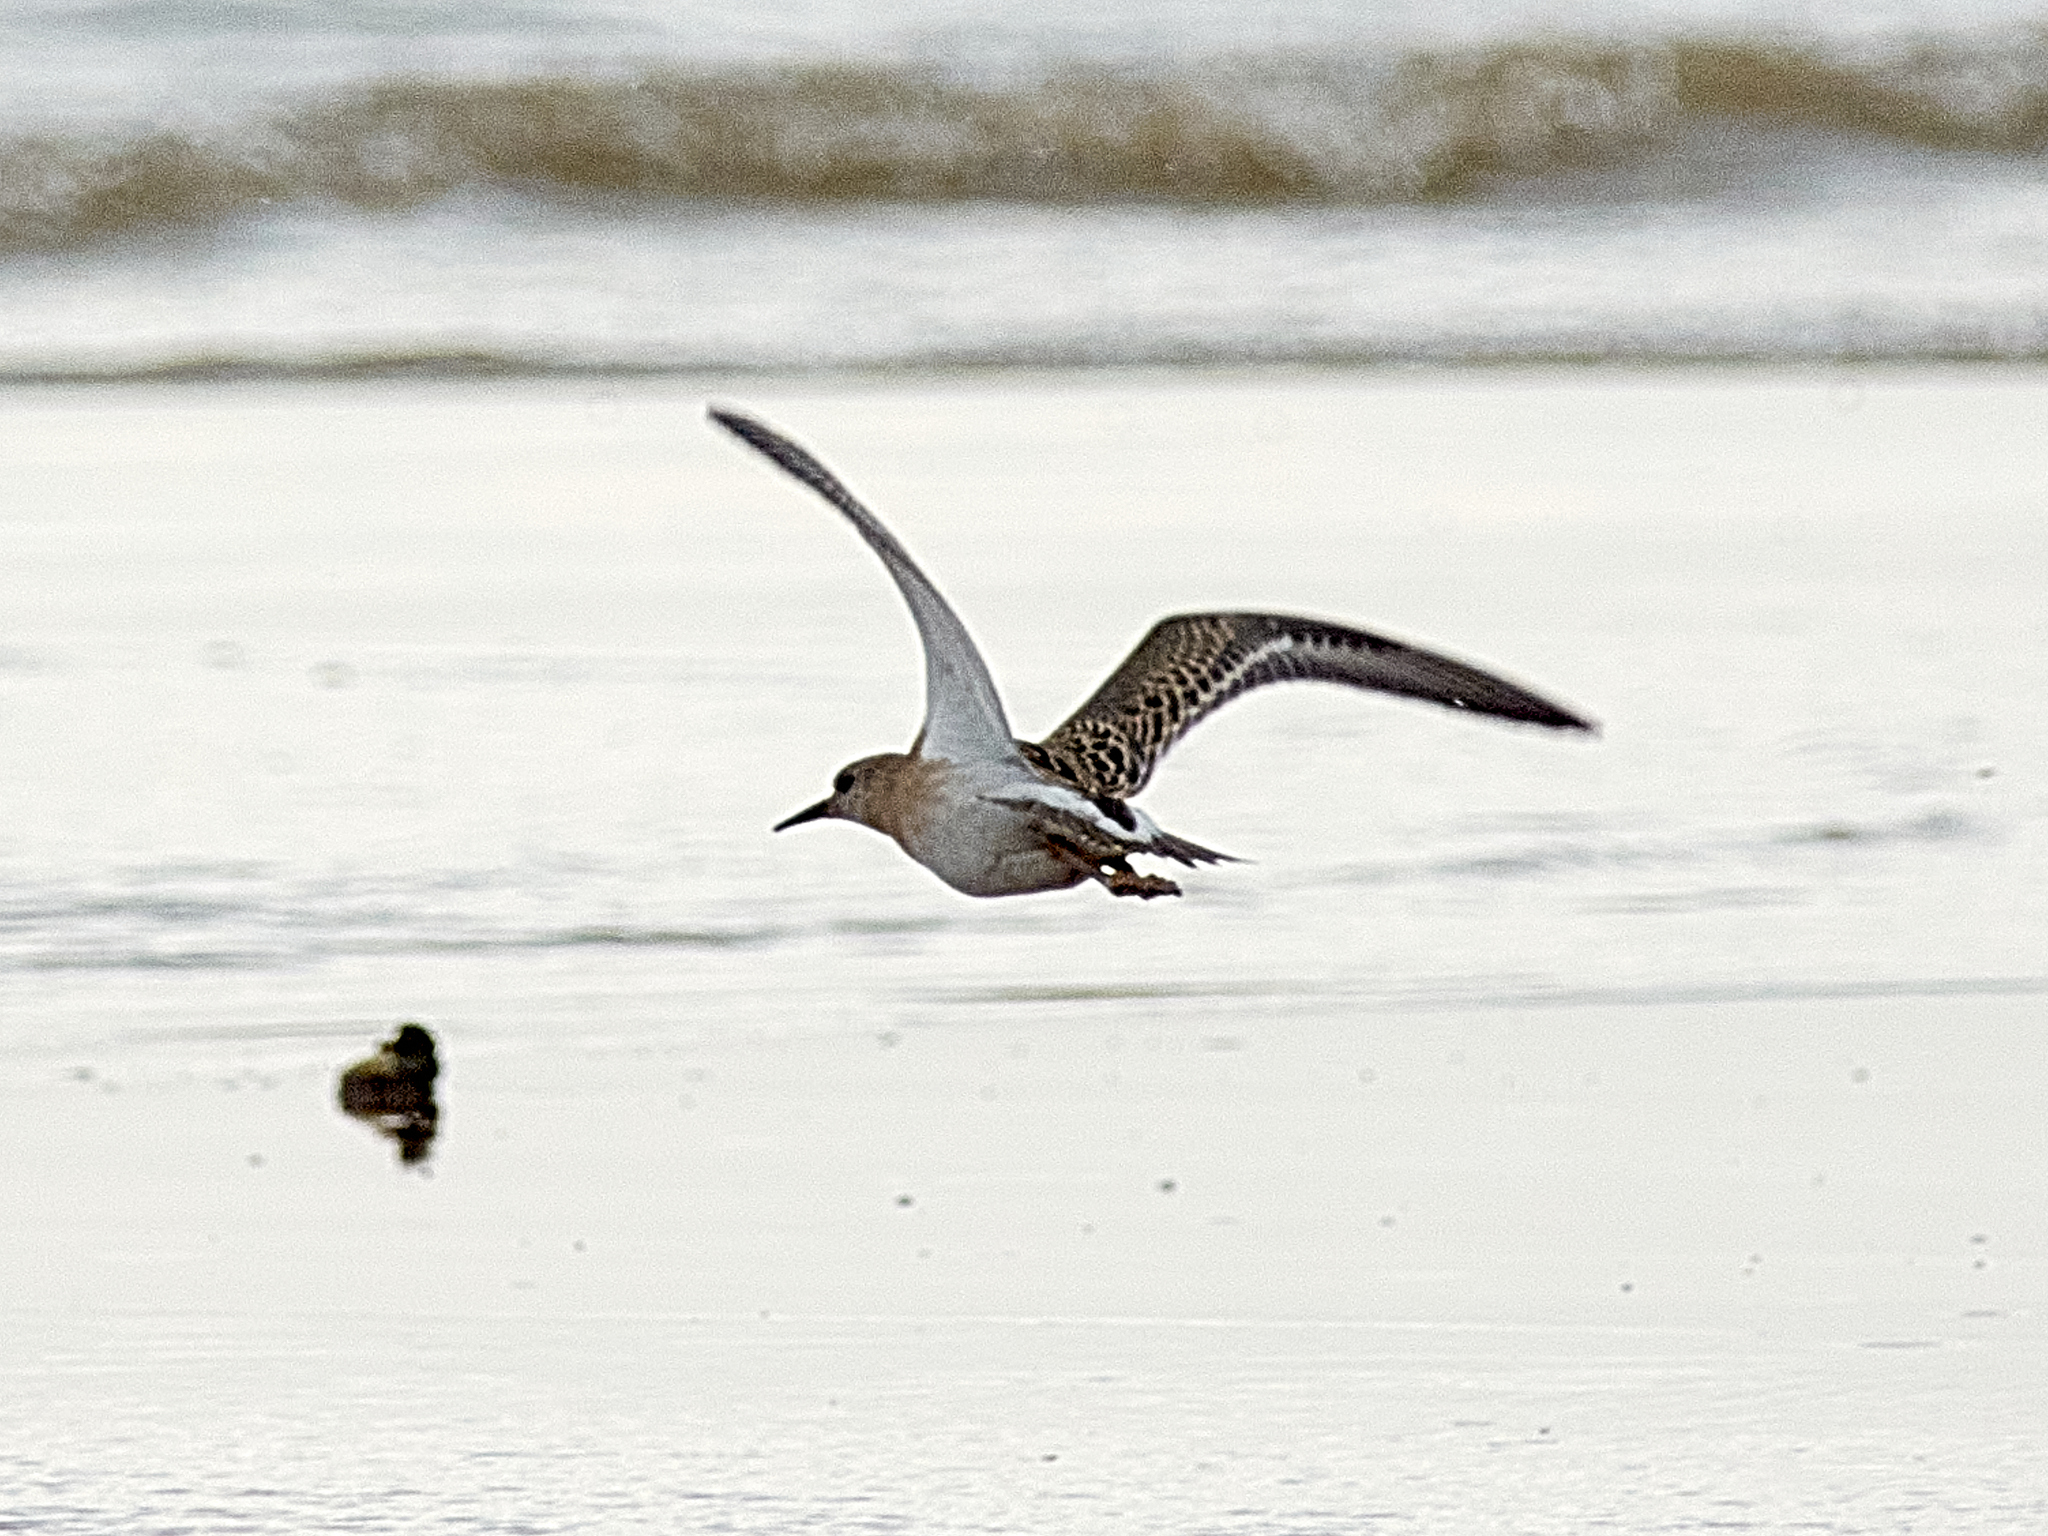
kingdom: Animalia
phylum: Chordata
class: Aves
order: Charadriiformes
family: Scolopacidae
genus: Calidris
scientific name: Calidris pugnax
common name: Ruff
